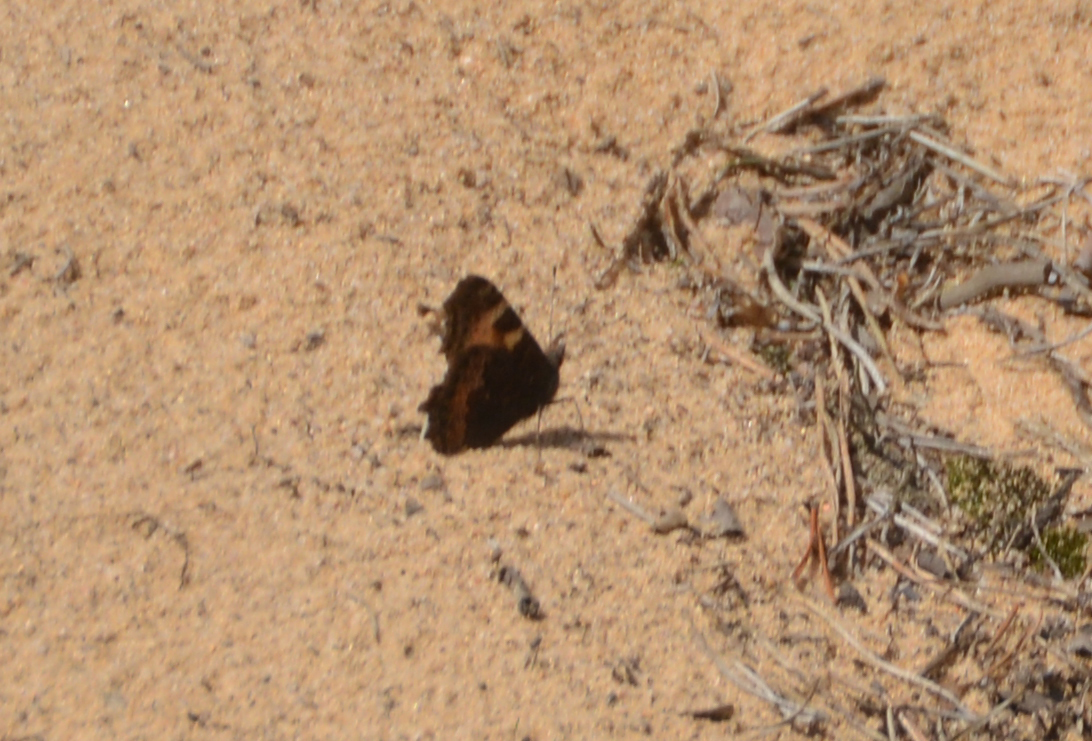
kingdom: Animalia
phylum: Arthropoda
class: Insecta
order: Lepidoptera
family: Nymphalidae
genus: Aglais
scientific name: Aglais urticae
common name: Small tortoiseshell
